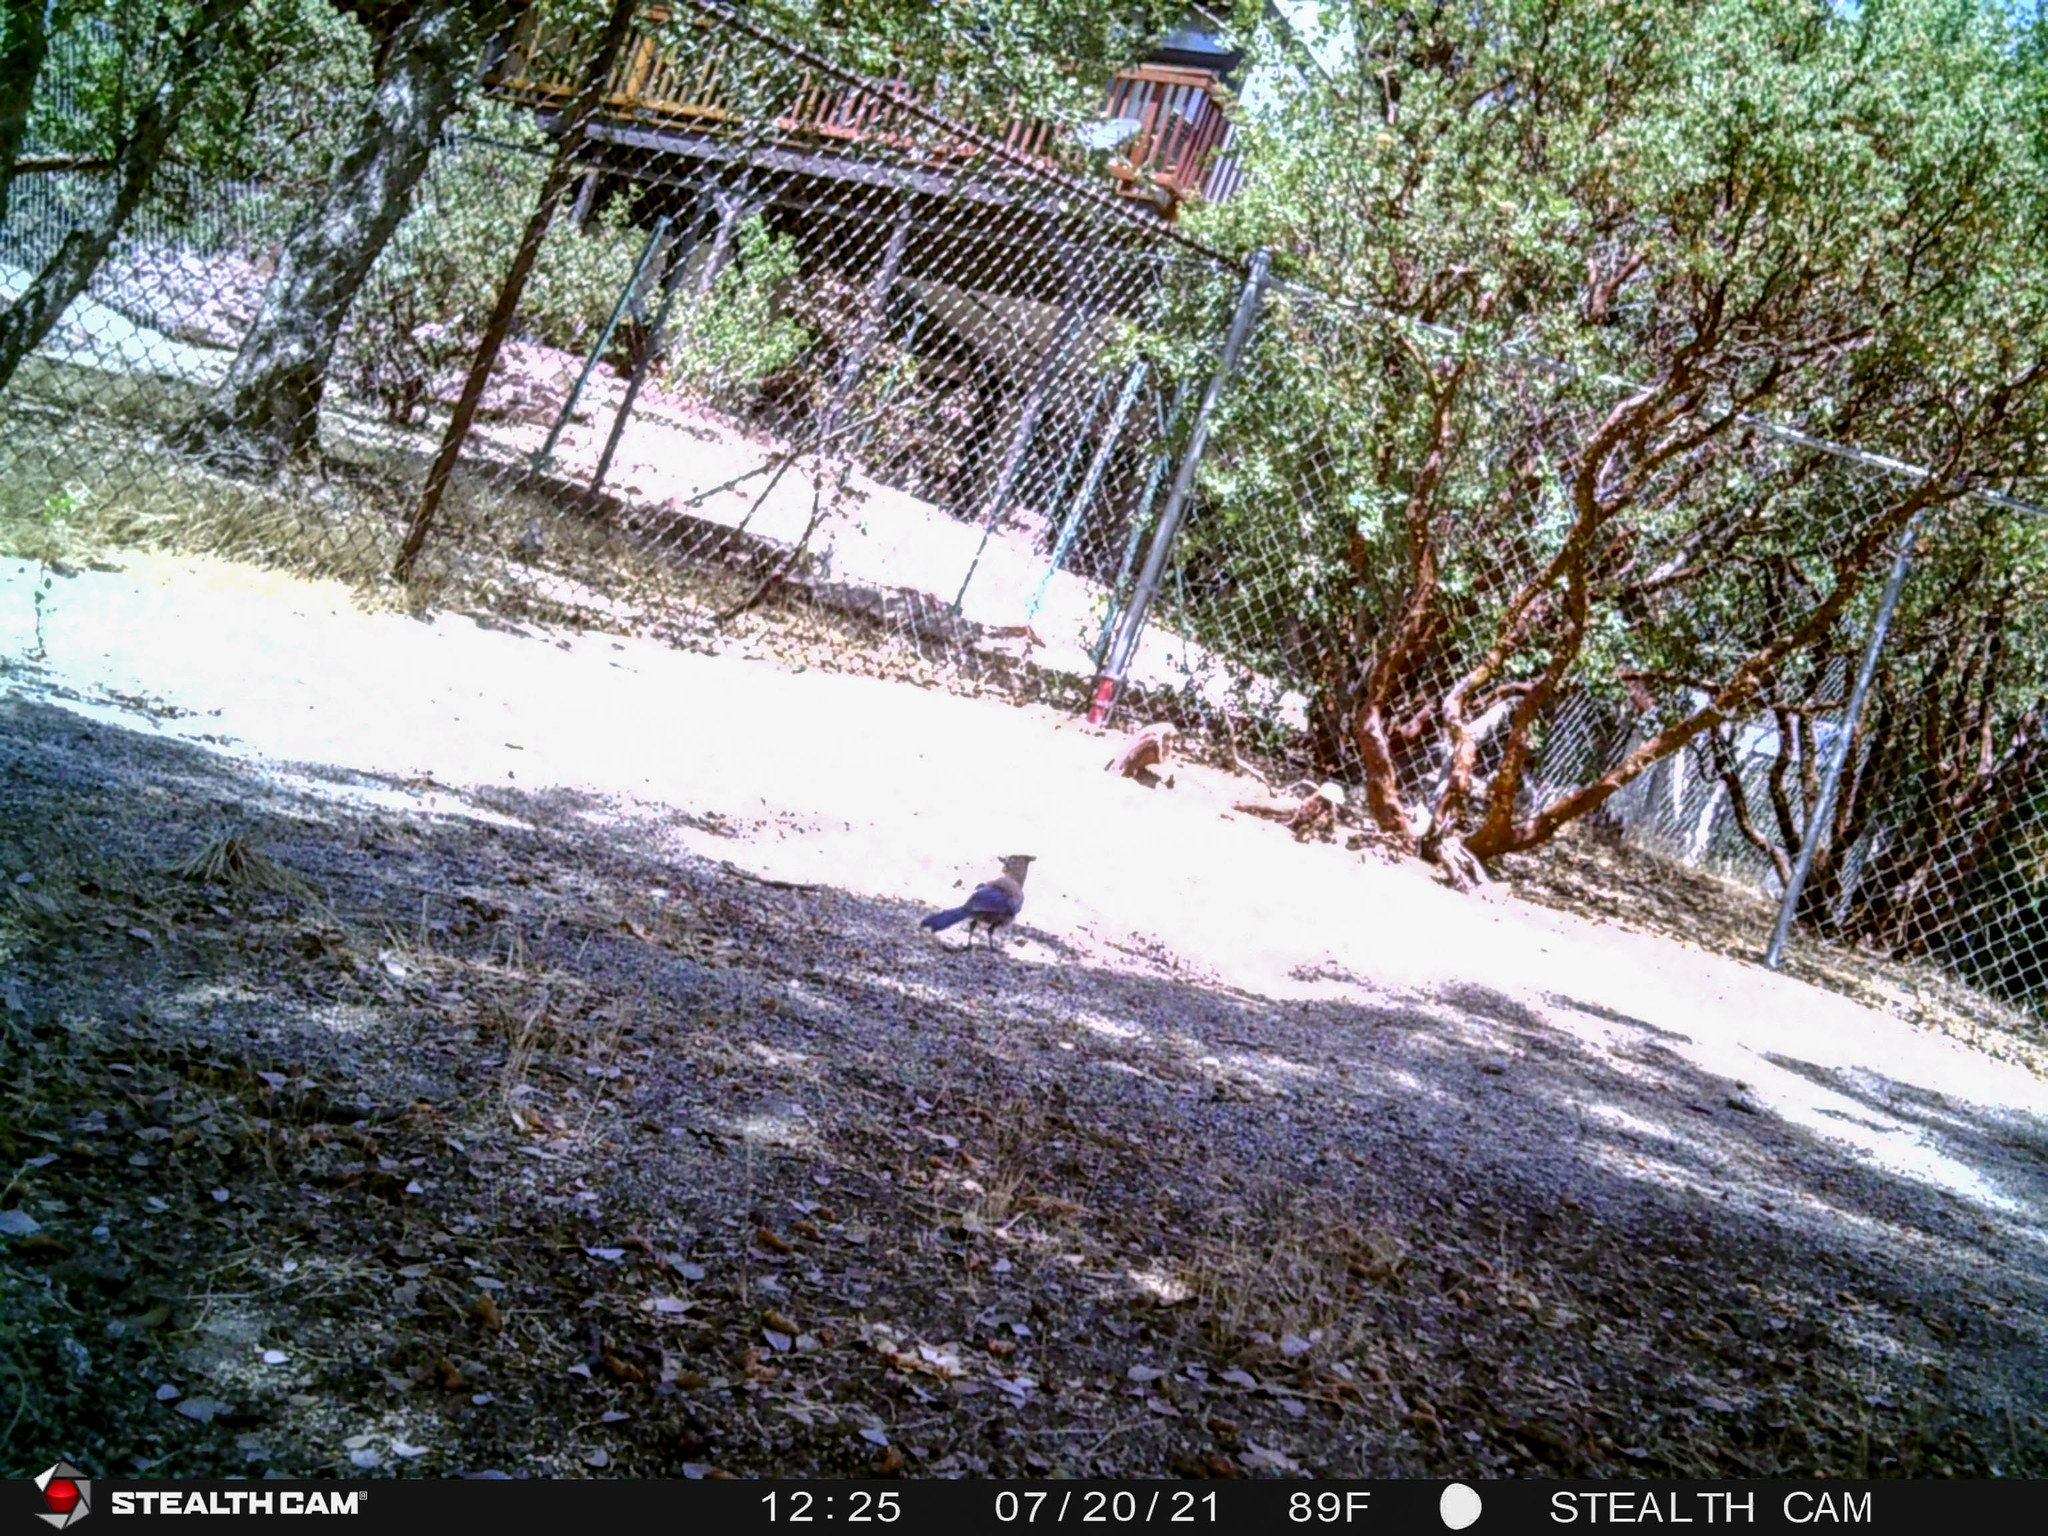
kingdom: Animalia
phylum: Chordata
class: Aves
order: Passeriformes
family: Corvidae
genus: Cyanocitta
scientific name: Cyanocitta stelleri
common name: Steller's jay
